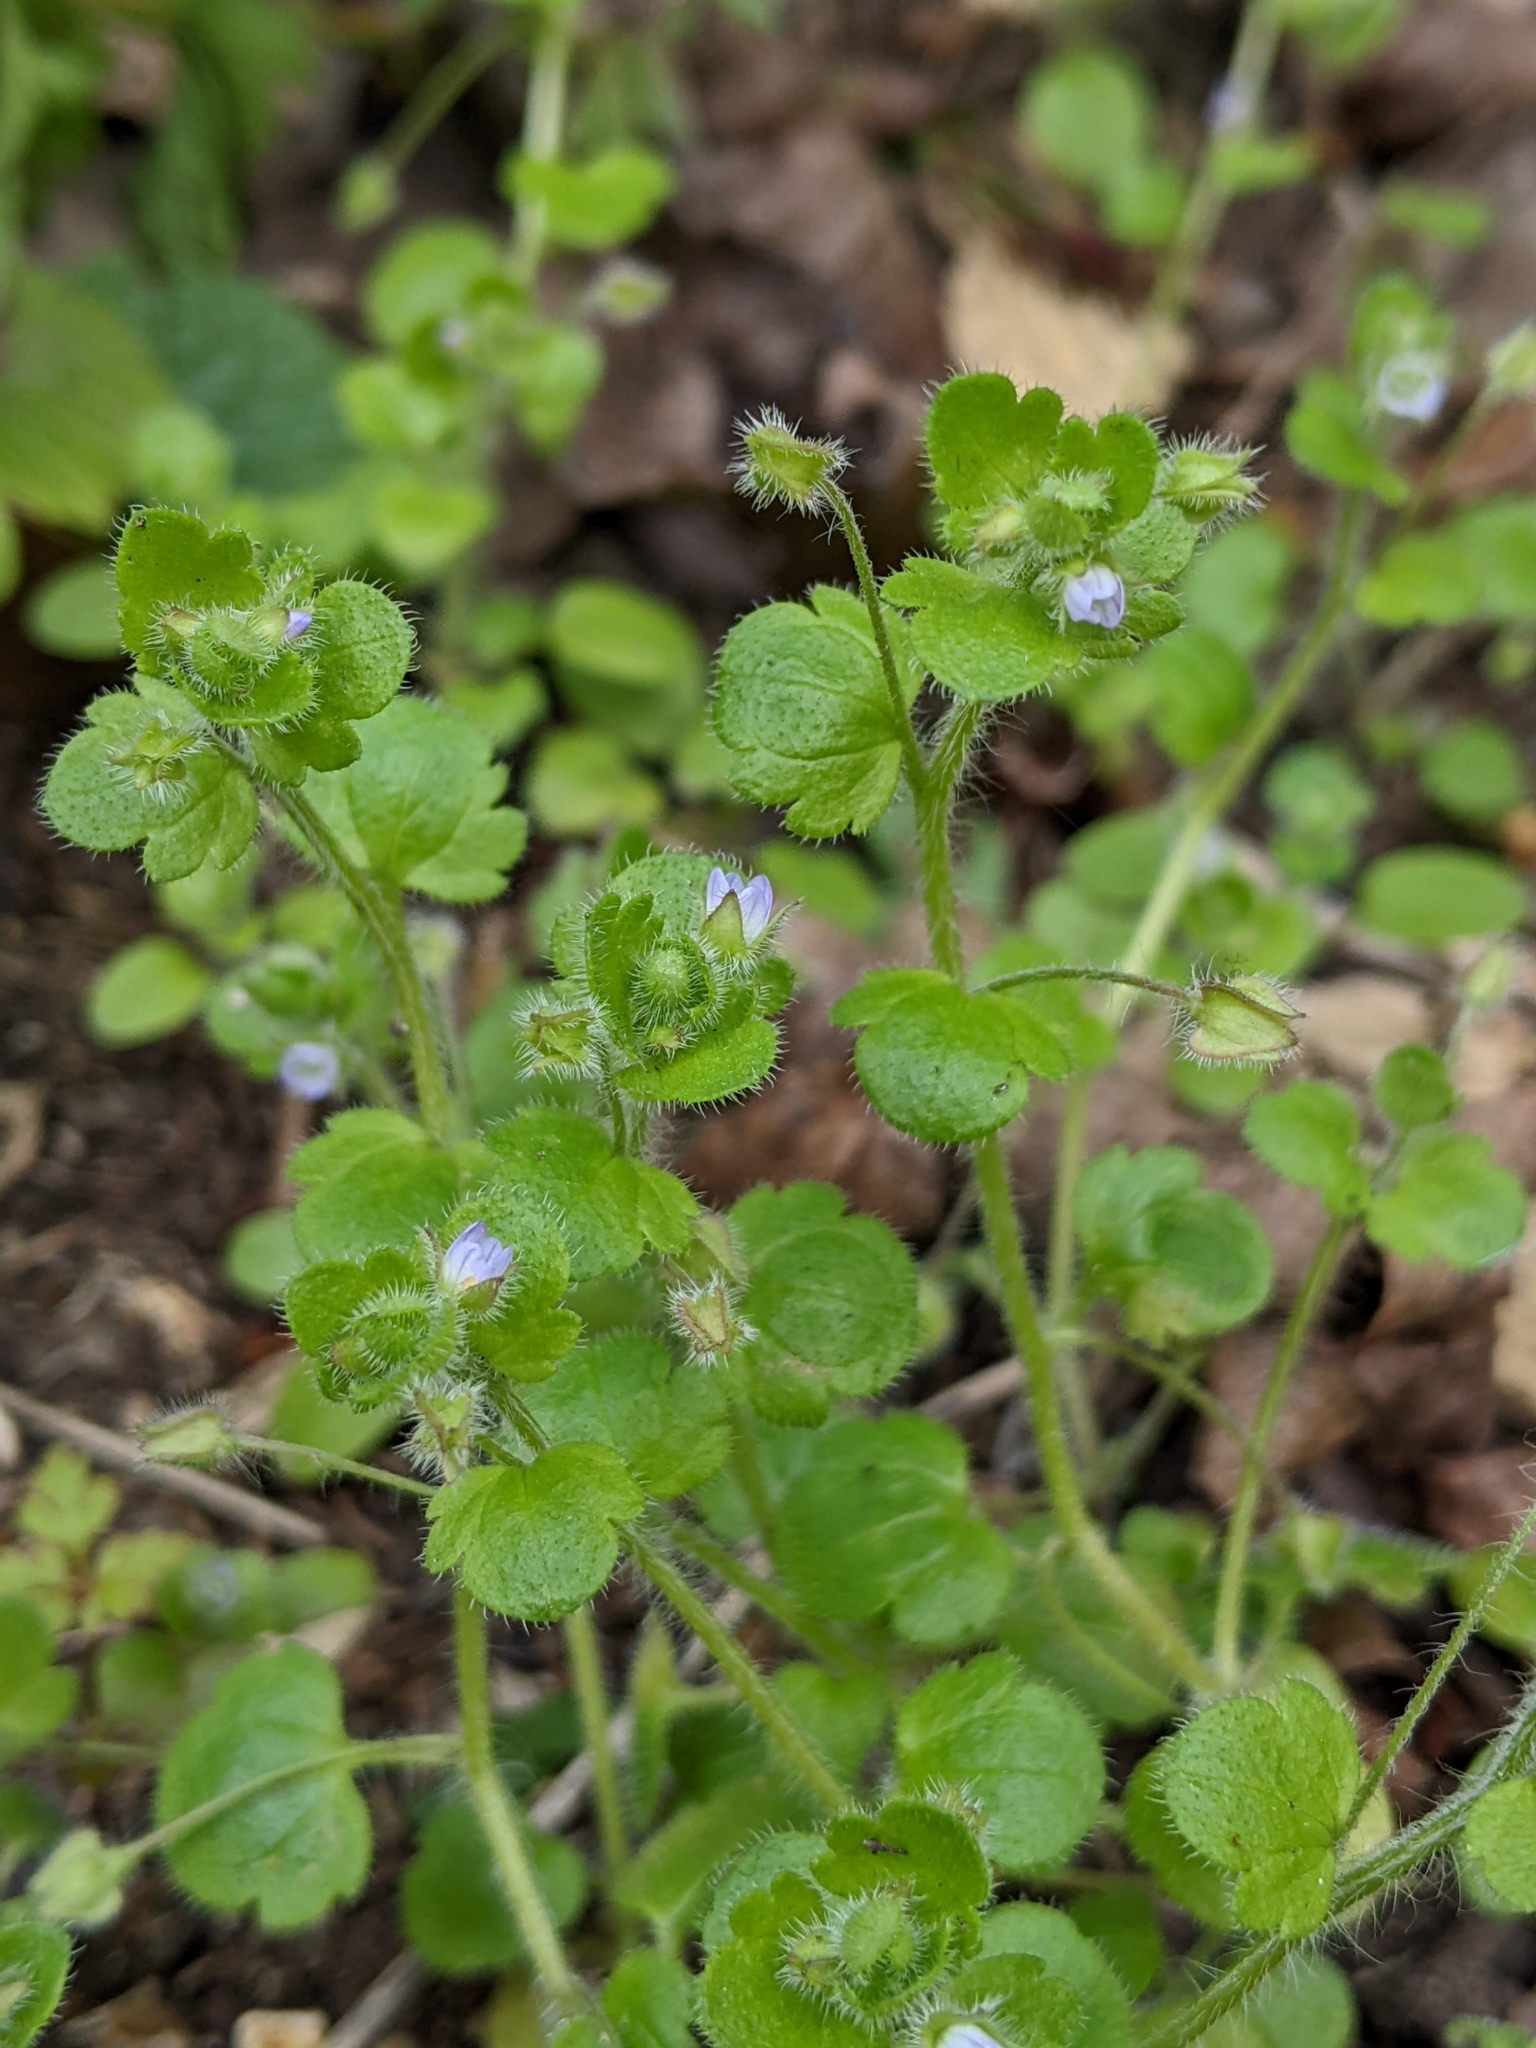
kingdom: Plantae
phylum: Tracheophyta
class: Magnoliopsida
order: Lamiales
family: Plantaginaceae
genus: Veronica
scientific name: Veronica sublobata
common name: False ivy-leaved speedwell
